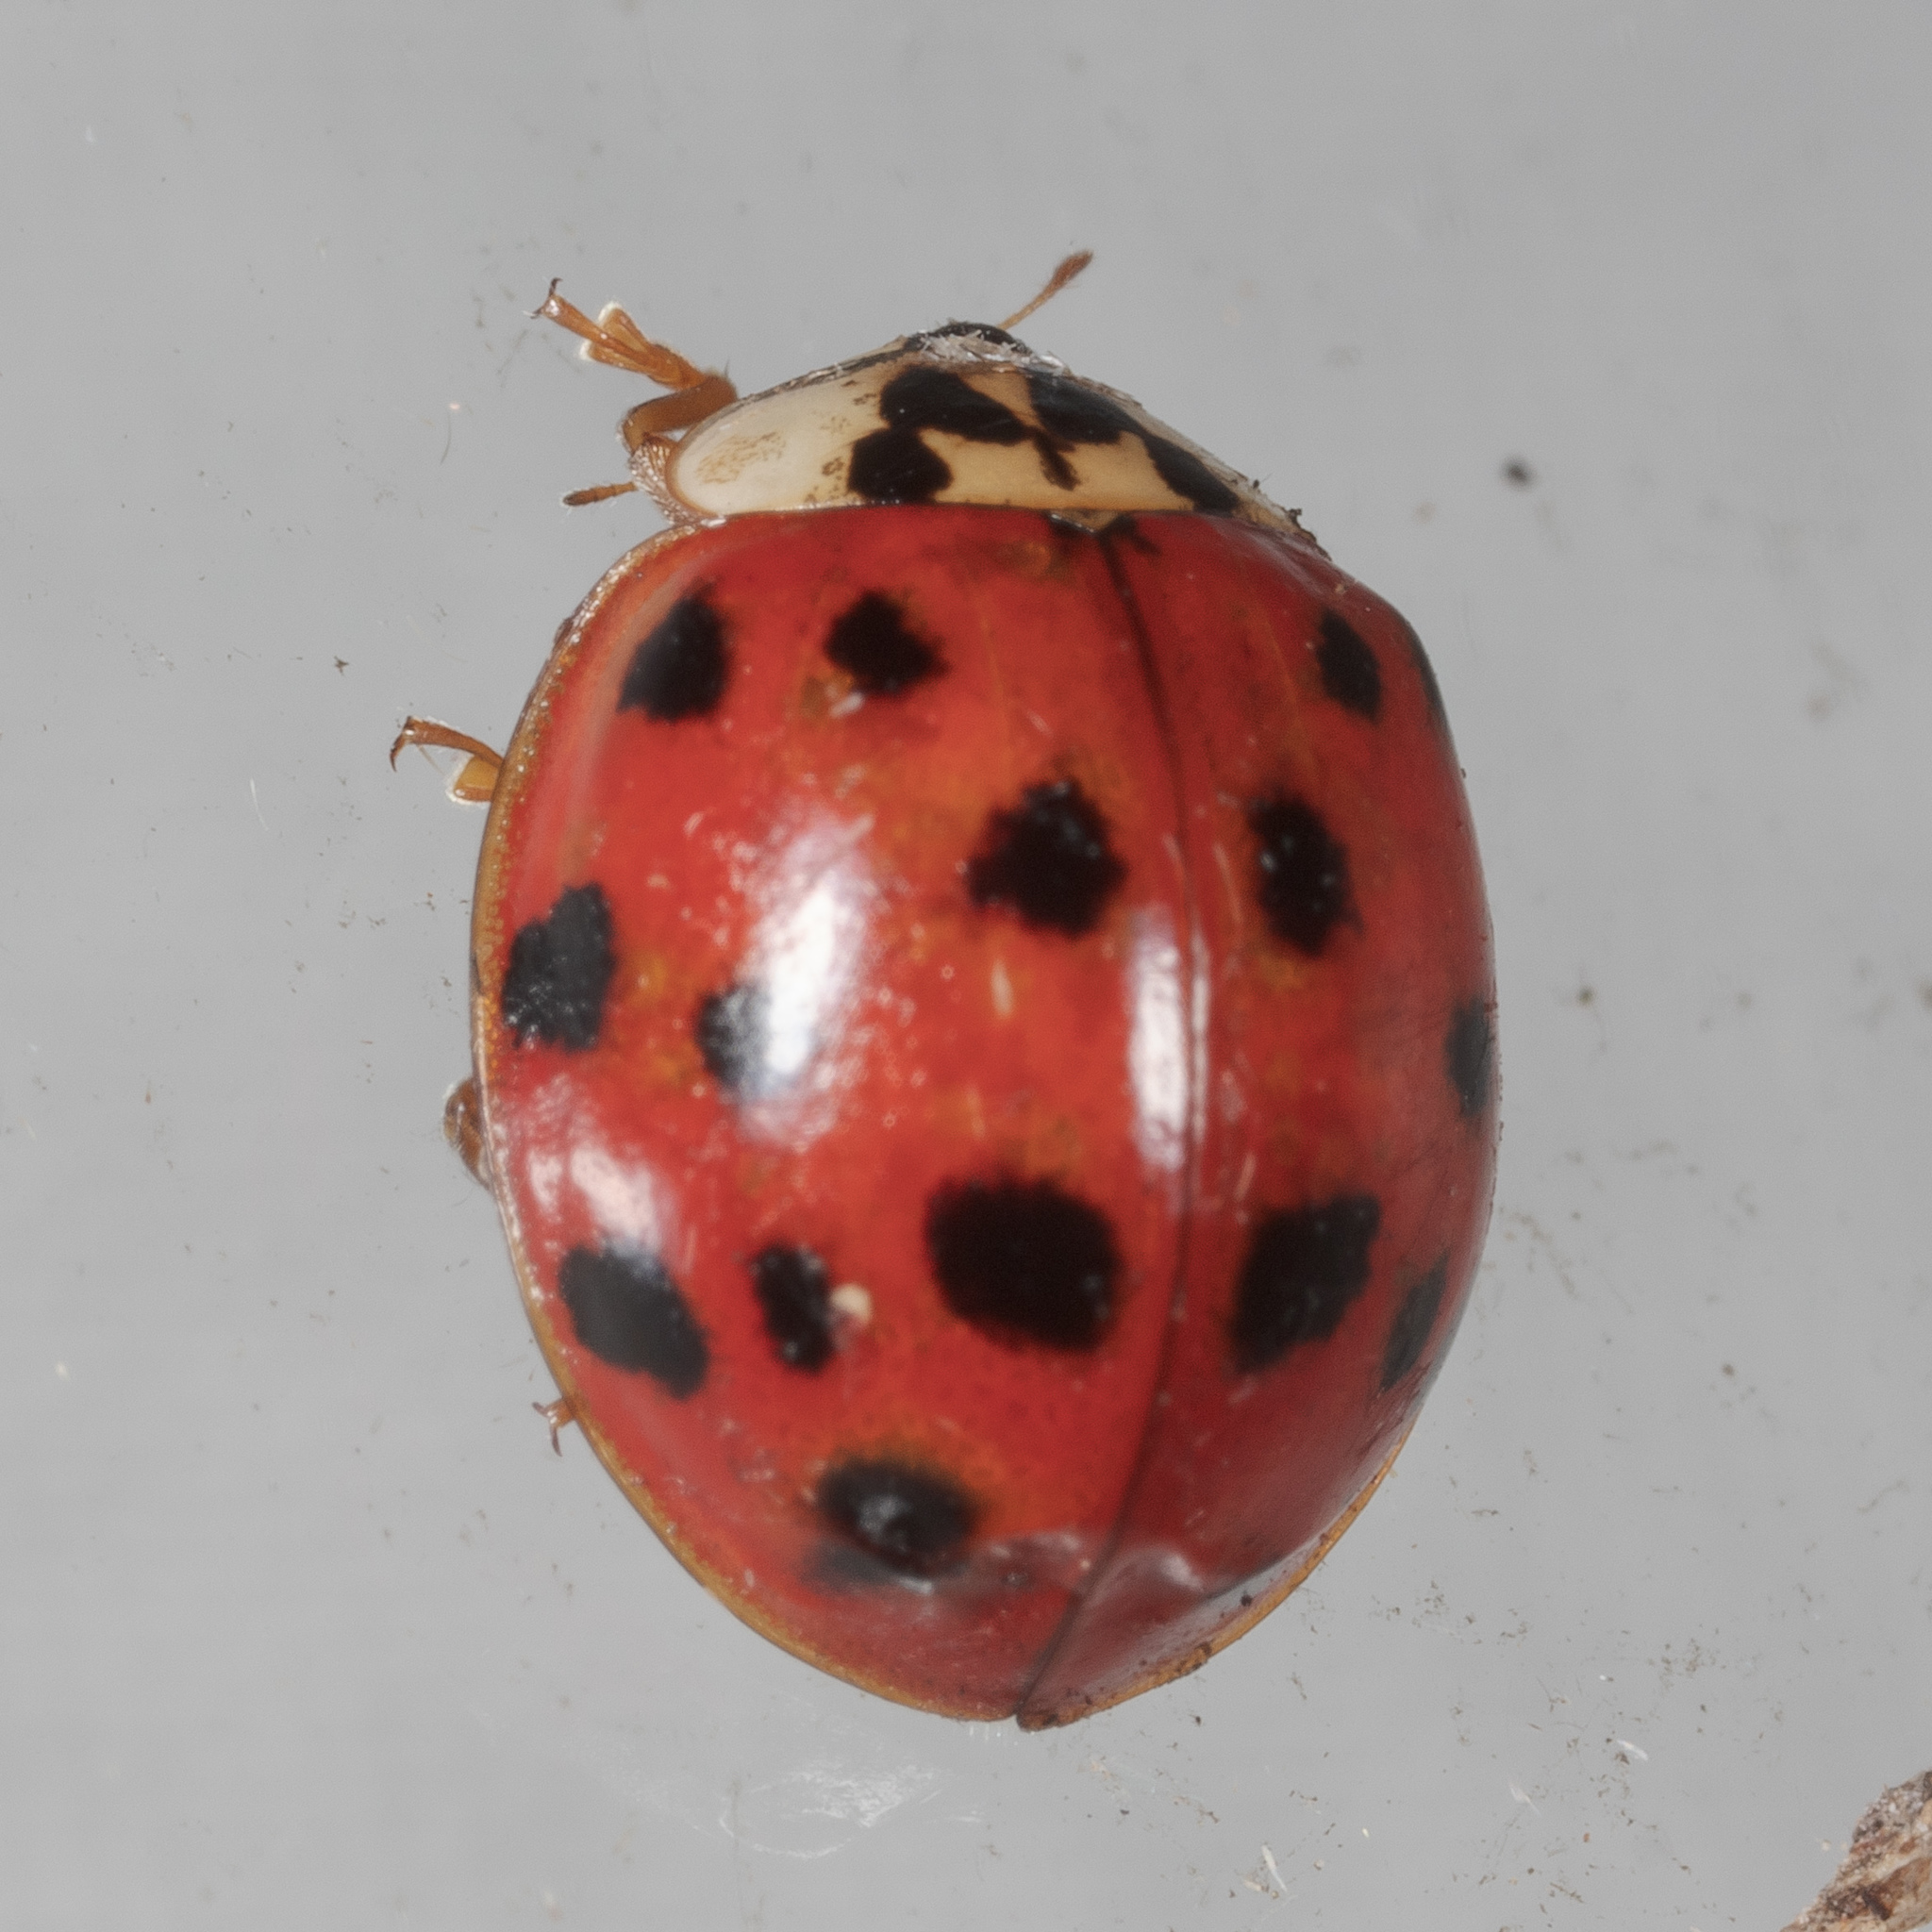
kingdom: Animalia
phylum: Arthropoda
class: Insecta
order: Coleoptera
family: Coccinellidae
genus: Harmonia
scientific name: Harmonia axyridis
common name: Harlequin ladybird
